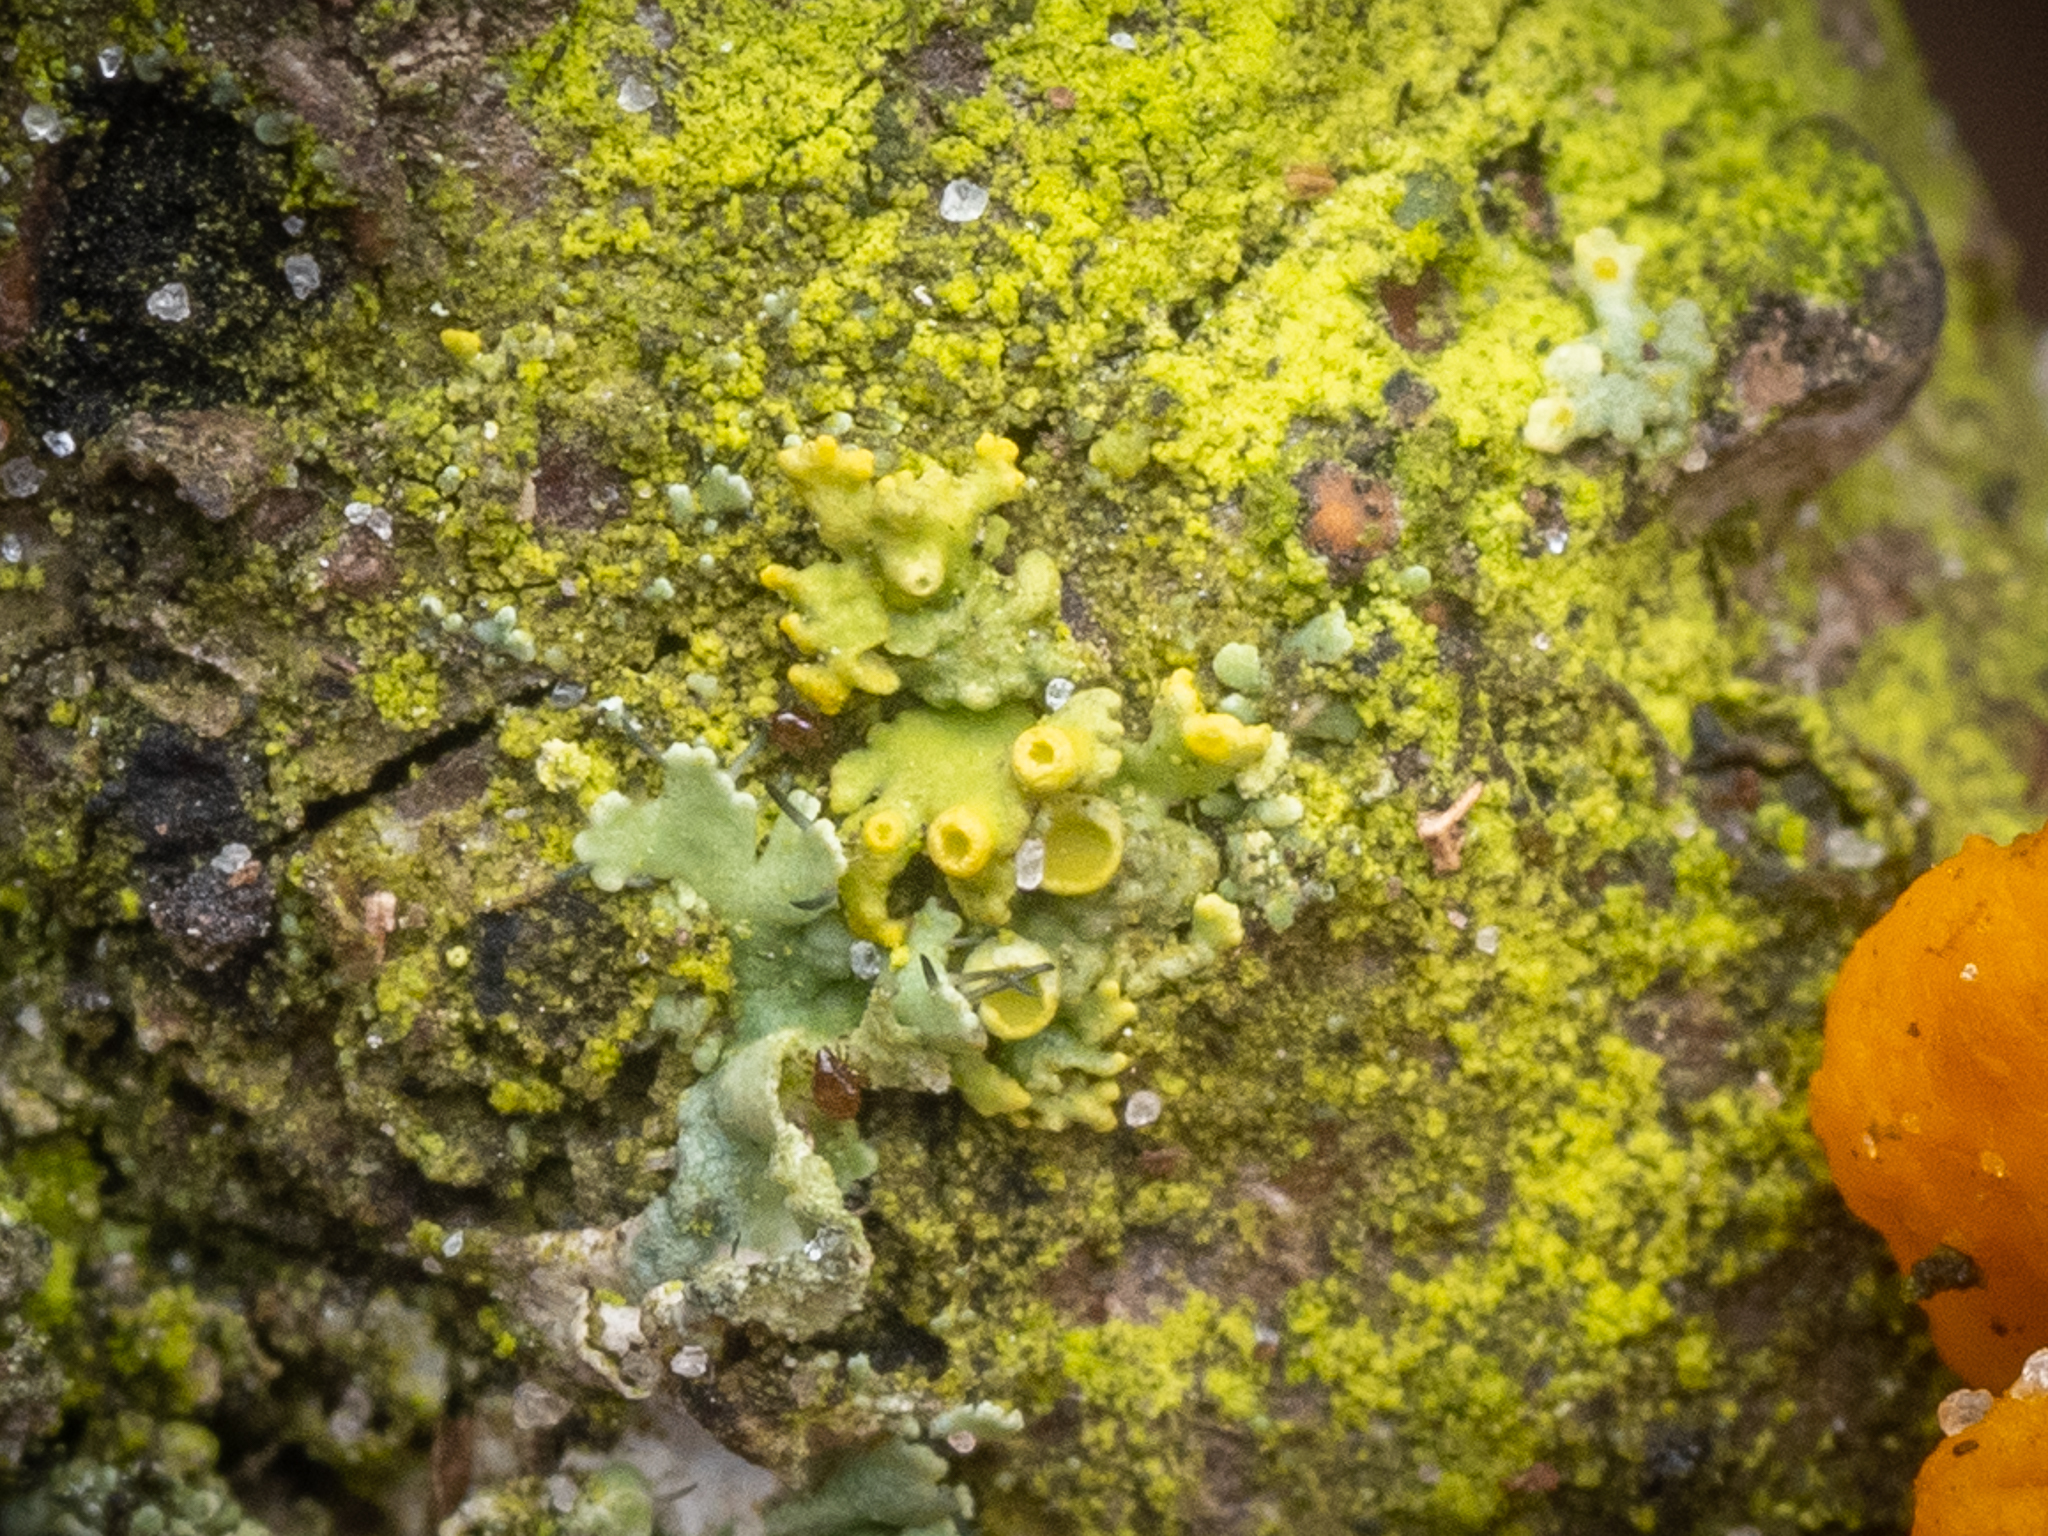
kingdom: Fungi
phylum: Ascomycota
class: Lecanoromycetes
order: Teloschistales
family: Teloschistaceae
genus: Polycauliona
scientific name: Polycauliona polycarpa
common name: Pin-cushion sunburst lichen
